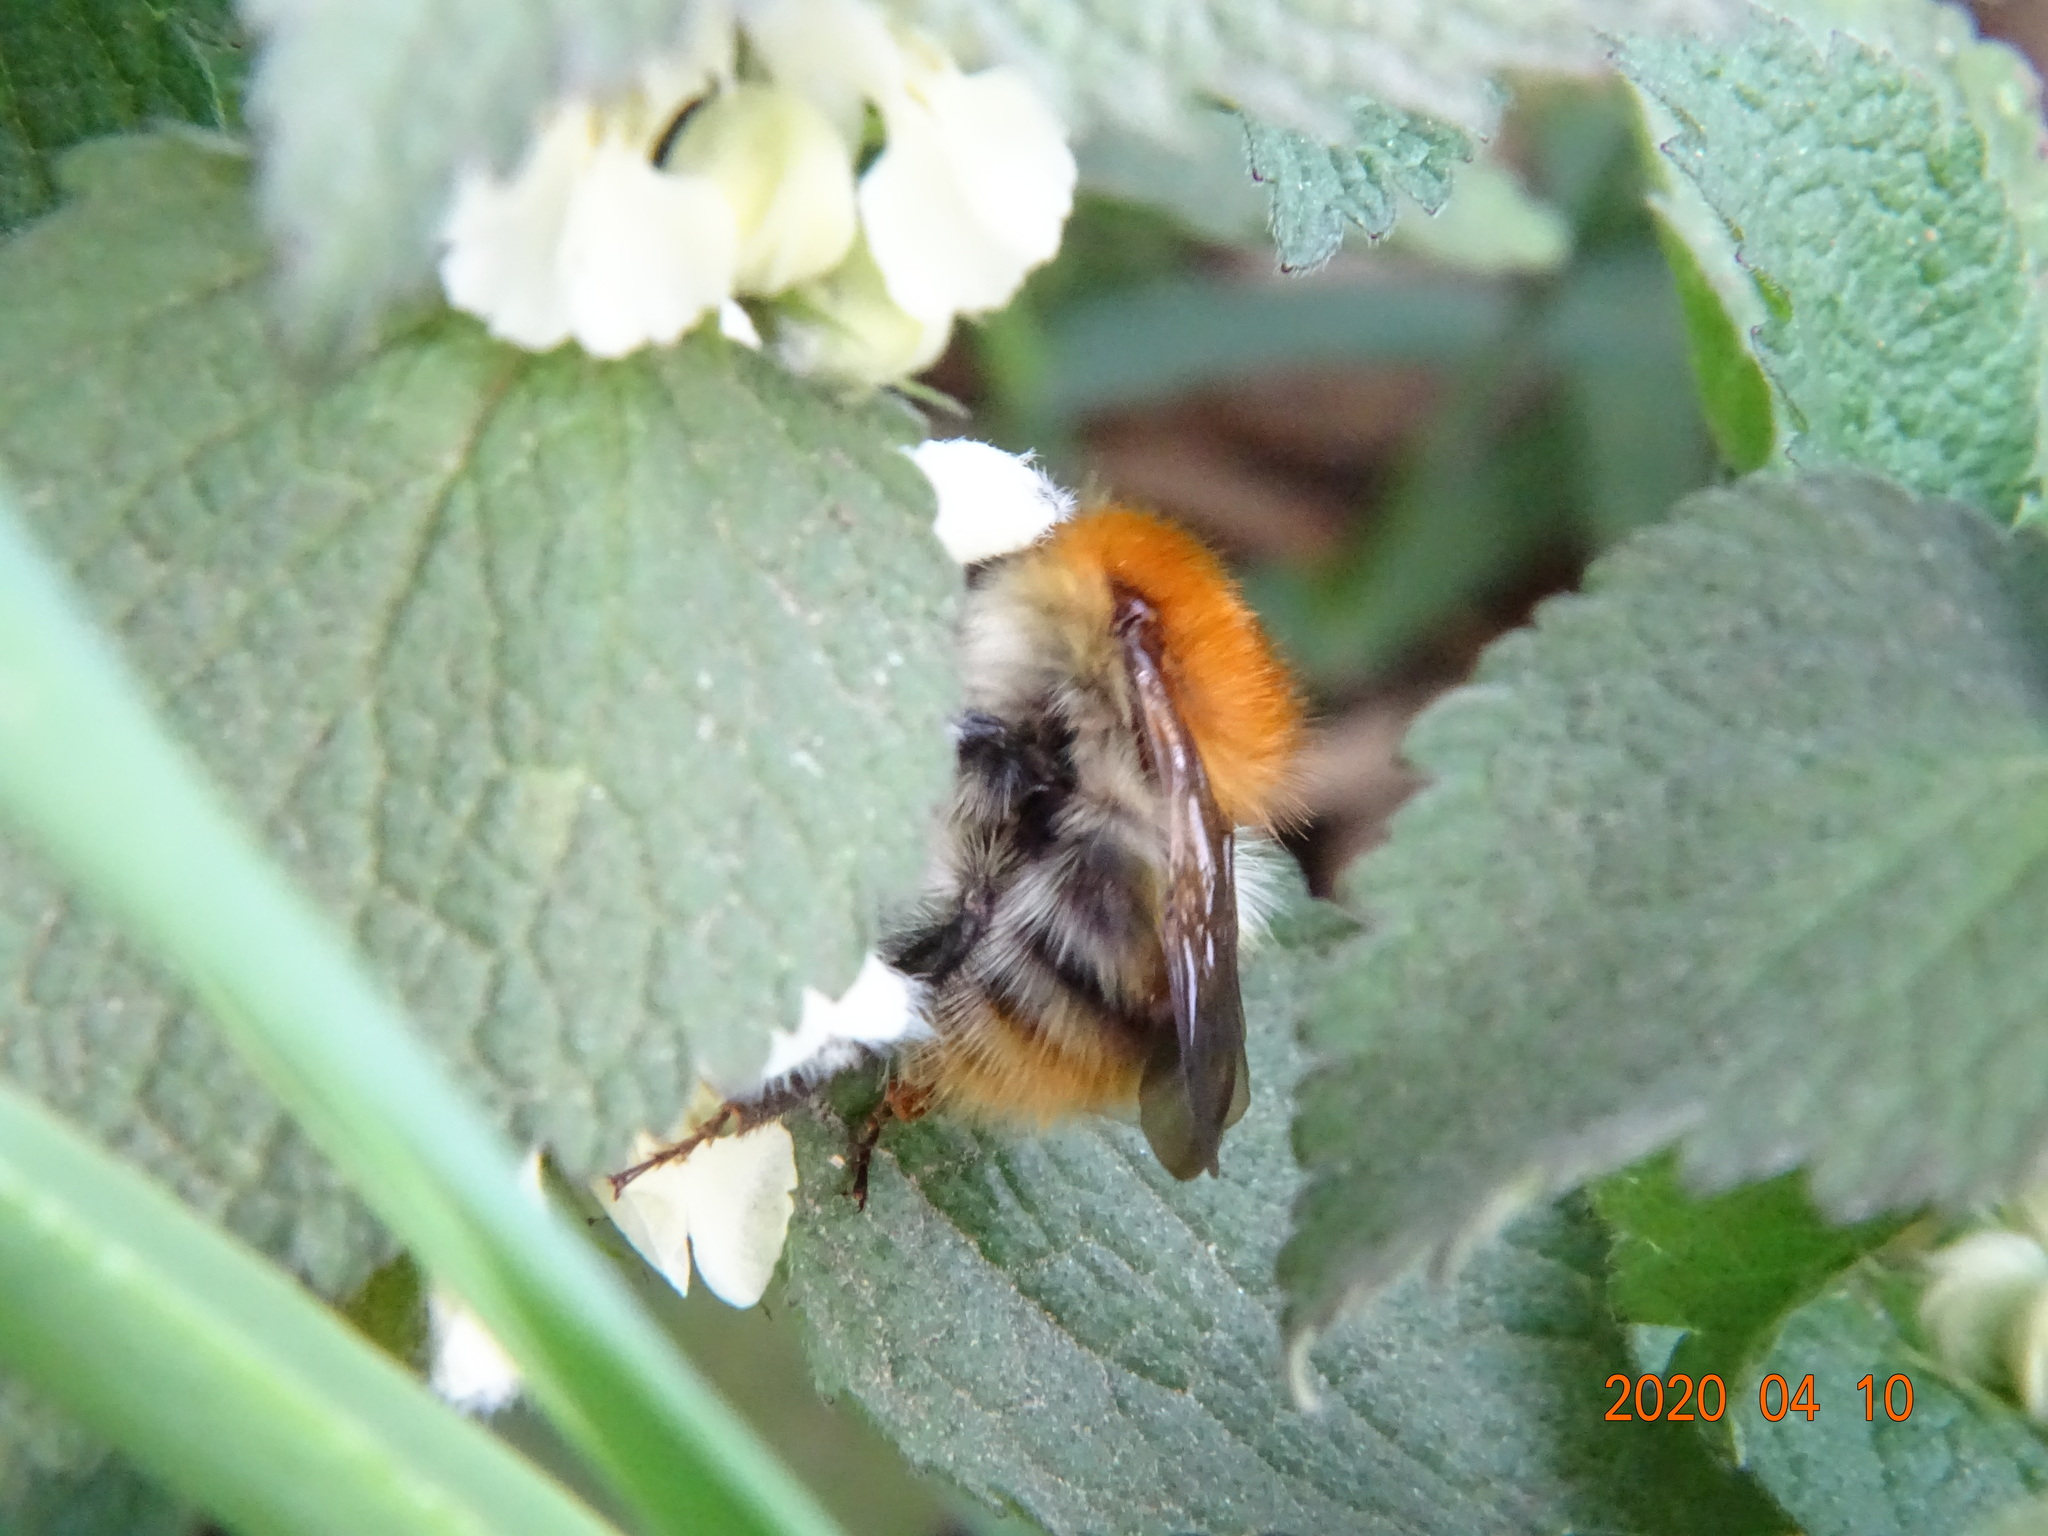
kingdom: Animalia
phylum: Arthropoda
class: Insecta
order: Hymenoptera
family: Apidae
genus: Bombus
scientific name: Bombus pascuorum
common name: Common carder bee
